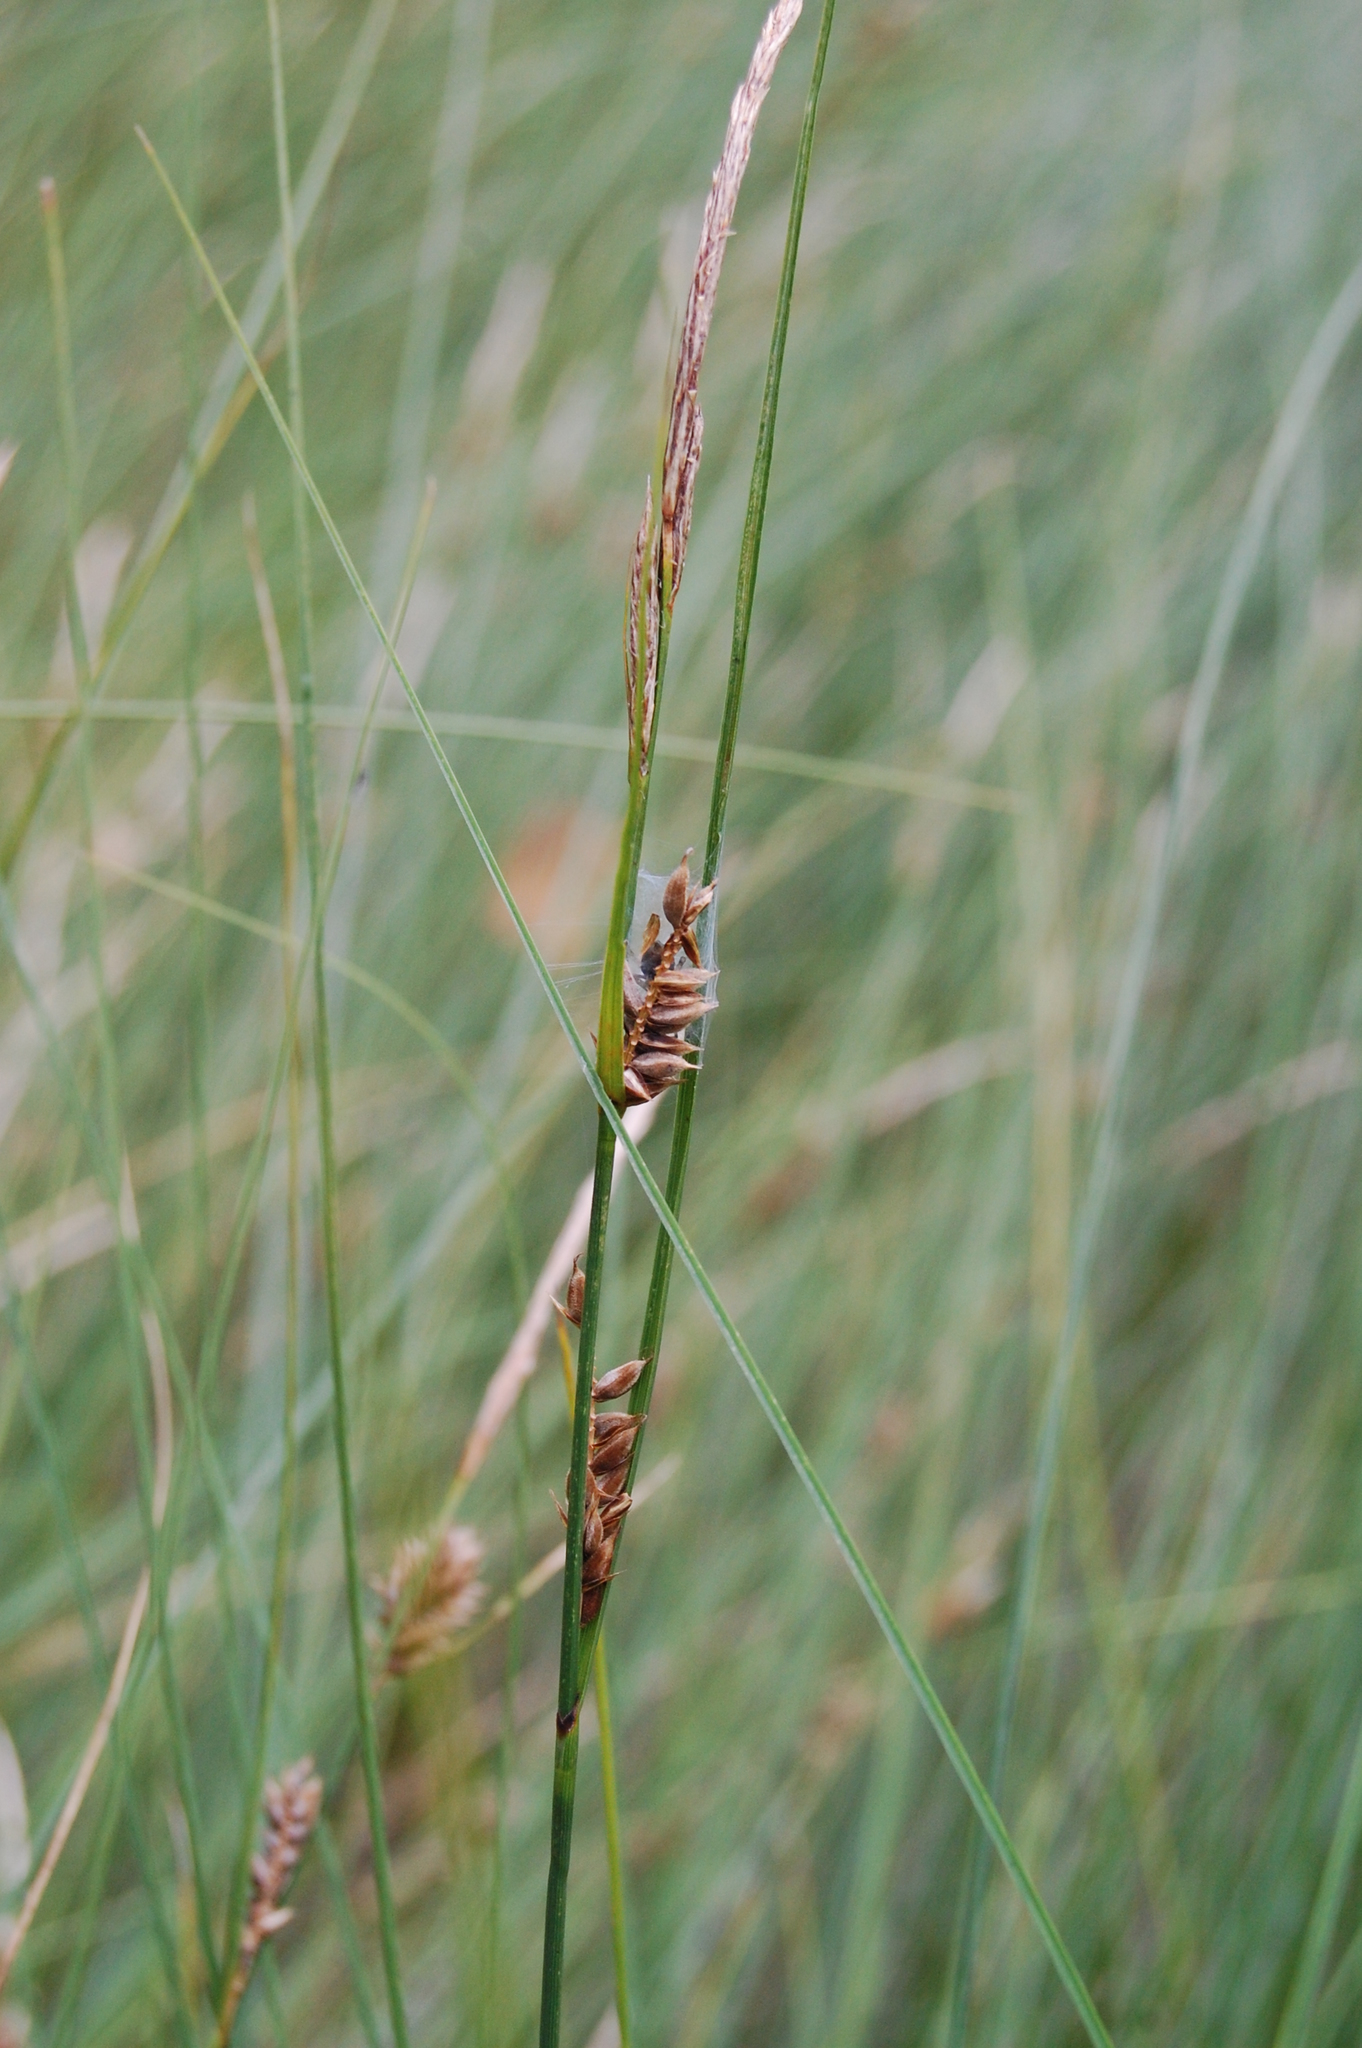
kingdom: Plantae
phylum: Tracheophyta
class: Liliopsida
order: Poales
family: Cyperaceae
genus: Carex
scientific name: Carex lasiocarpa
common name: Slender sedge
